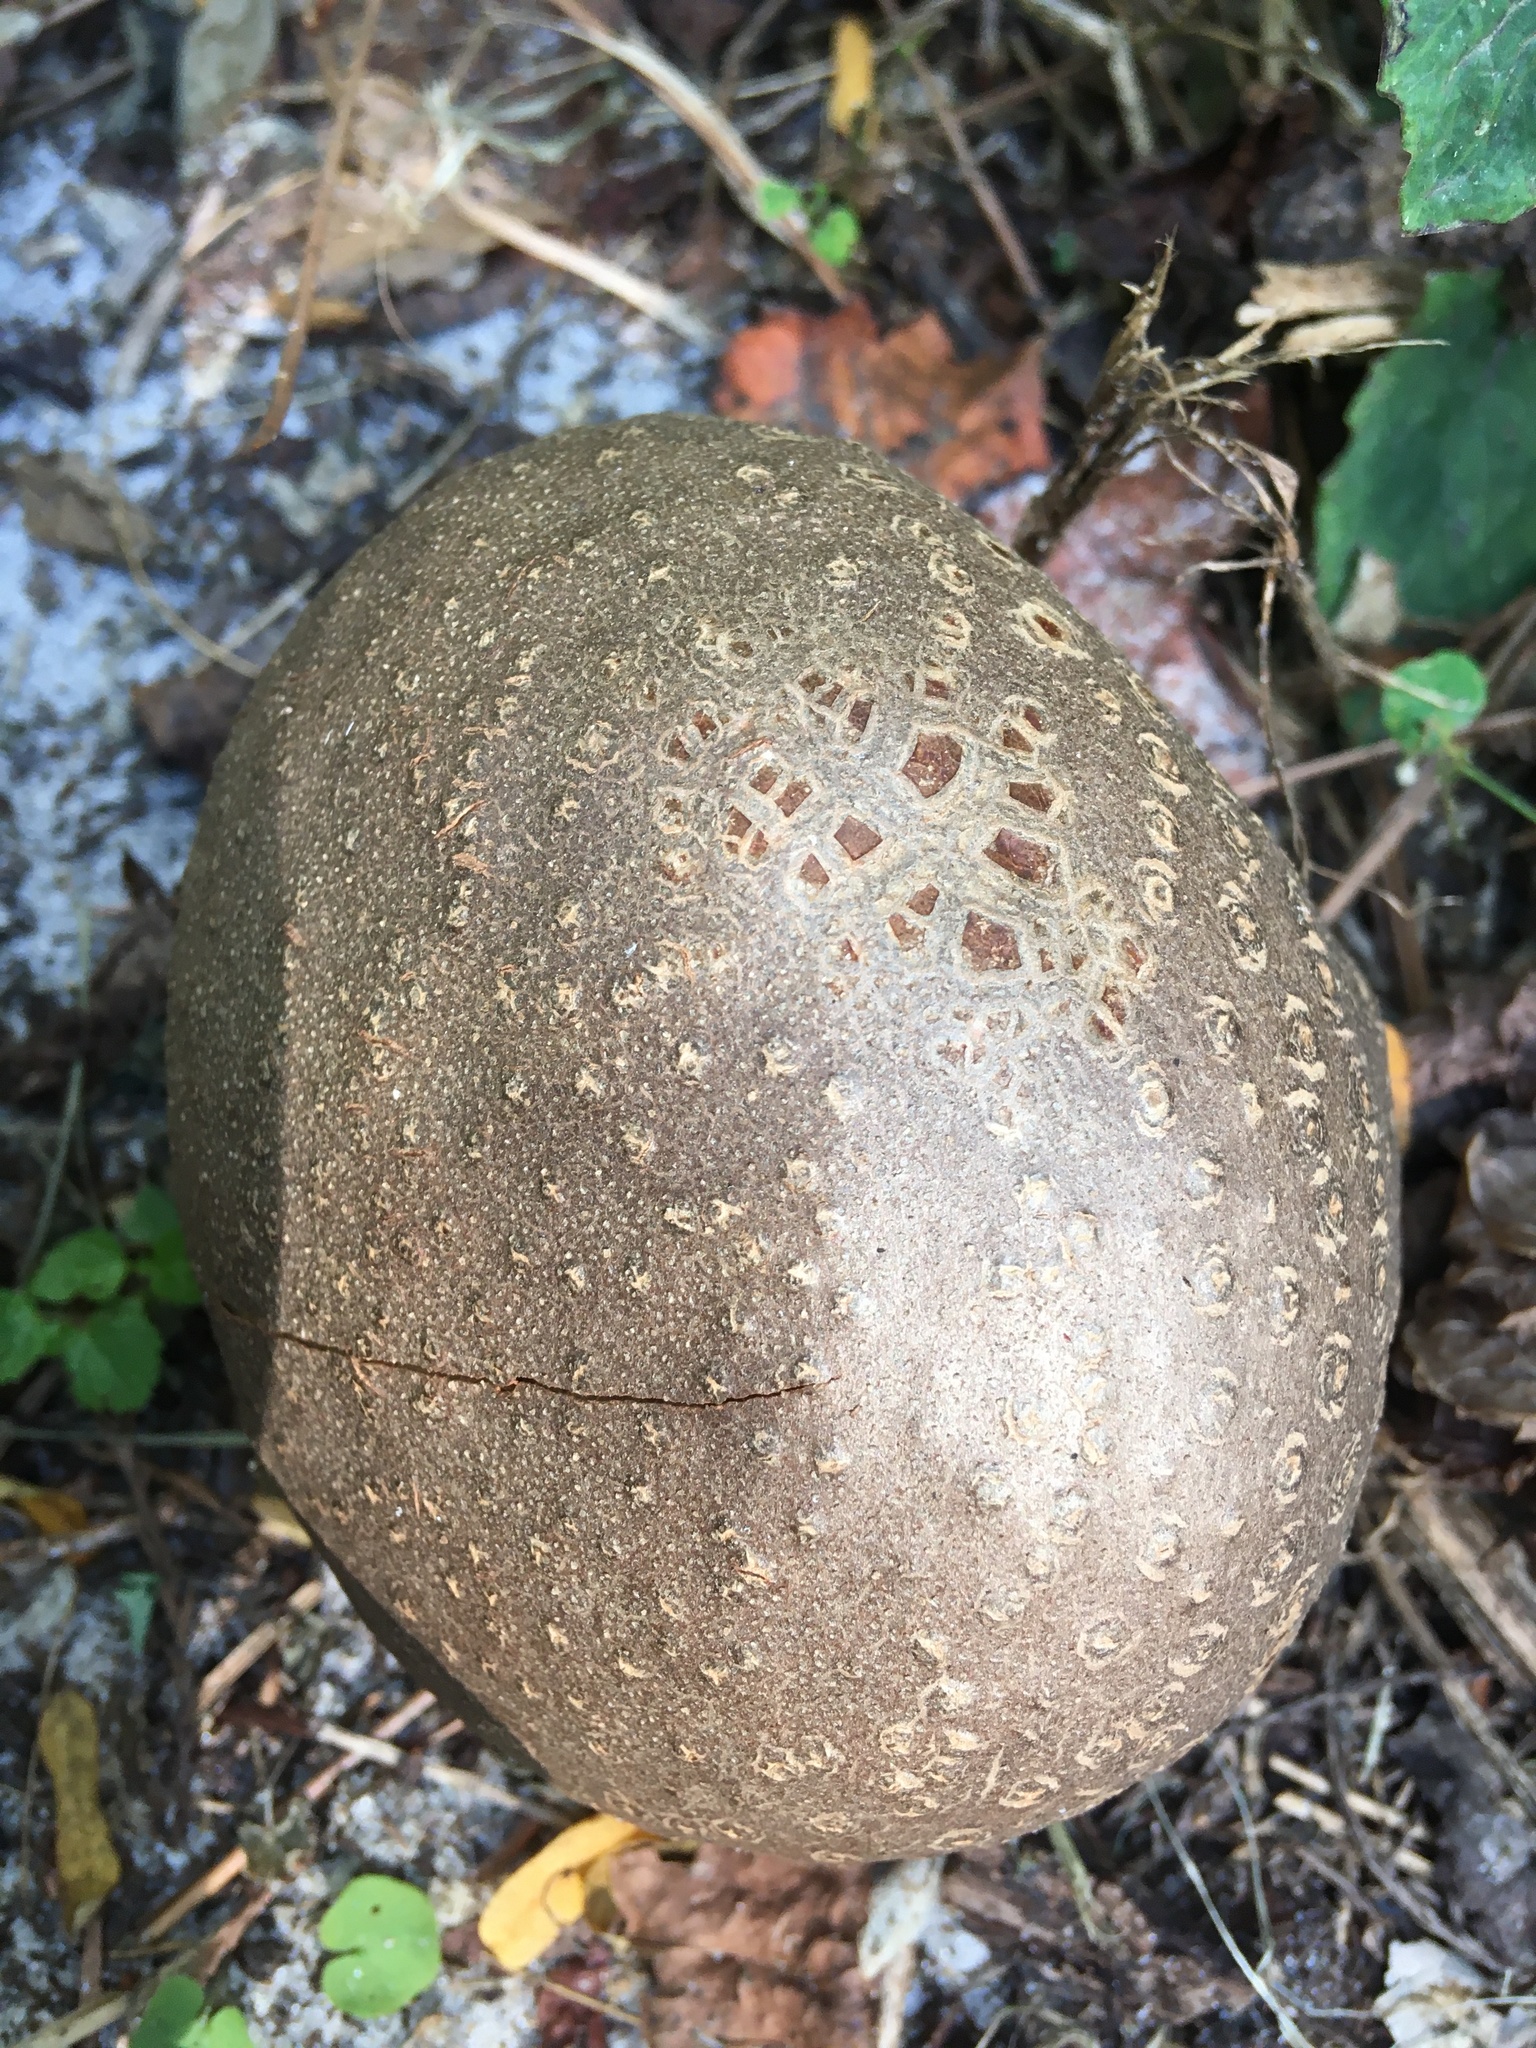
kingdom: Plantae
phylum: Tracheophyta
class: Liliopsida
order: Dioscoreales
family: Dioscoreaceae
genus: Dioscorea
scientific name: Dioscorea bulbifera
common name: Air yam
